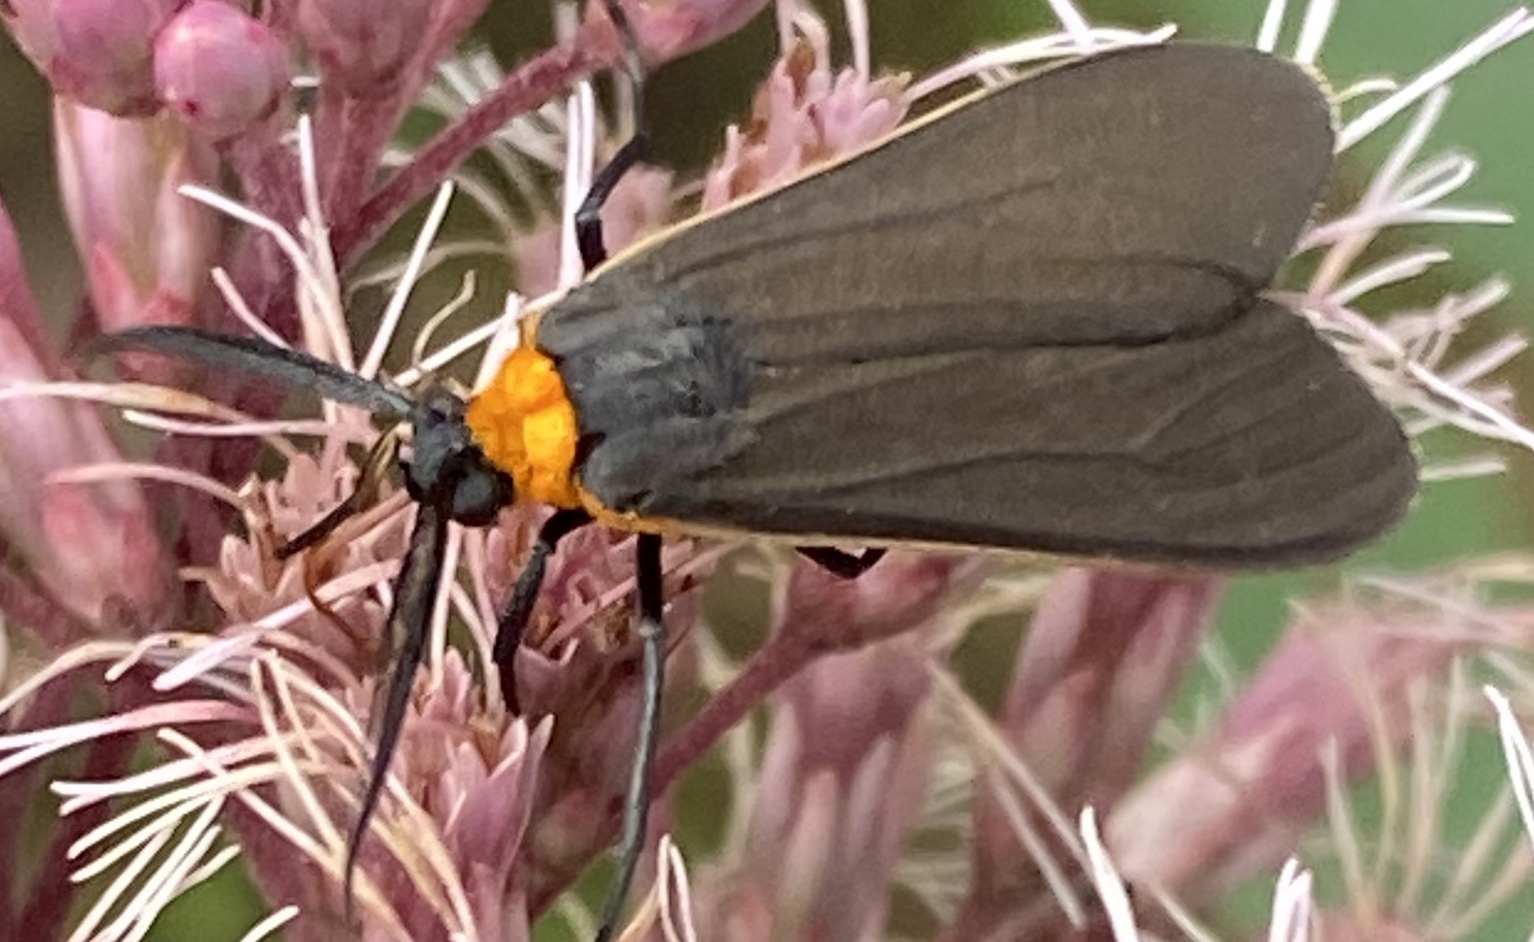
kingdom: Animalia
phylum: Arthropoda
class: Insecta
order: Lepidoptera
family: Erebidae
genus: Cisseps
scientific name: Cisseps fulvicollis
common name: Yellow-collared scape moth
